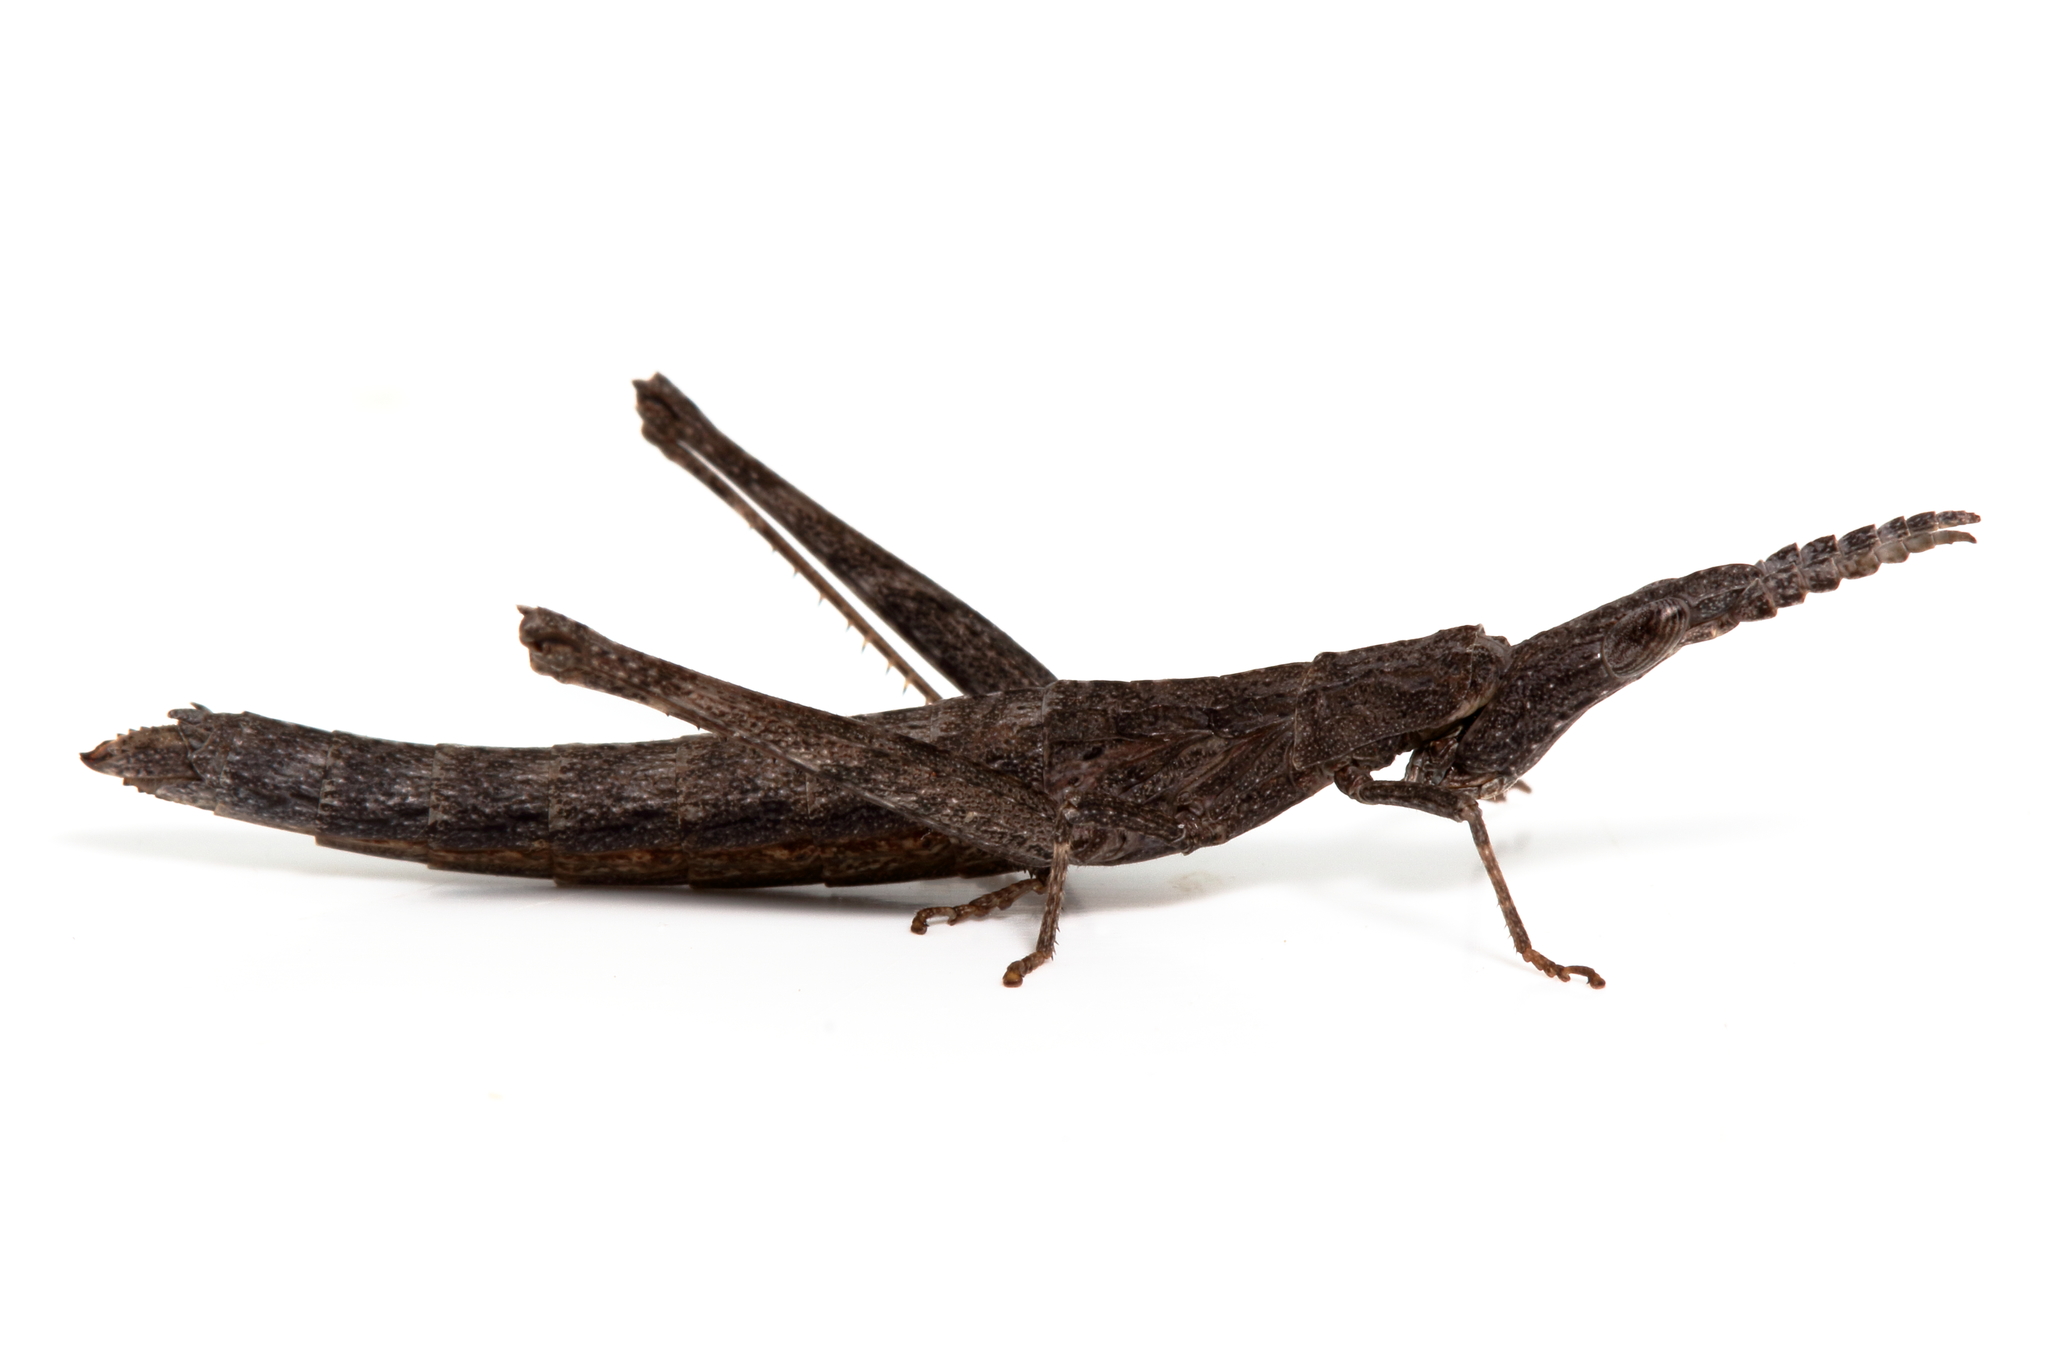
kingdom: Animalia
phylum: Arthropoda
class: Insecta
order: Orthoptera
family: Morabidae
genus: Vandiemenella
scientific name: Vandiemenella viatica
